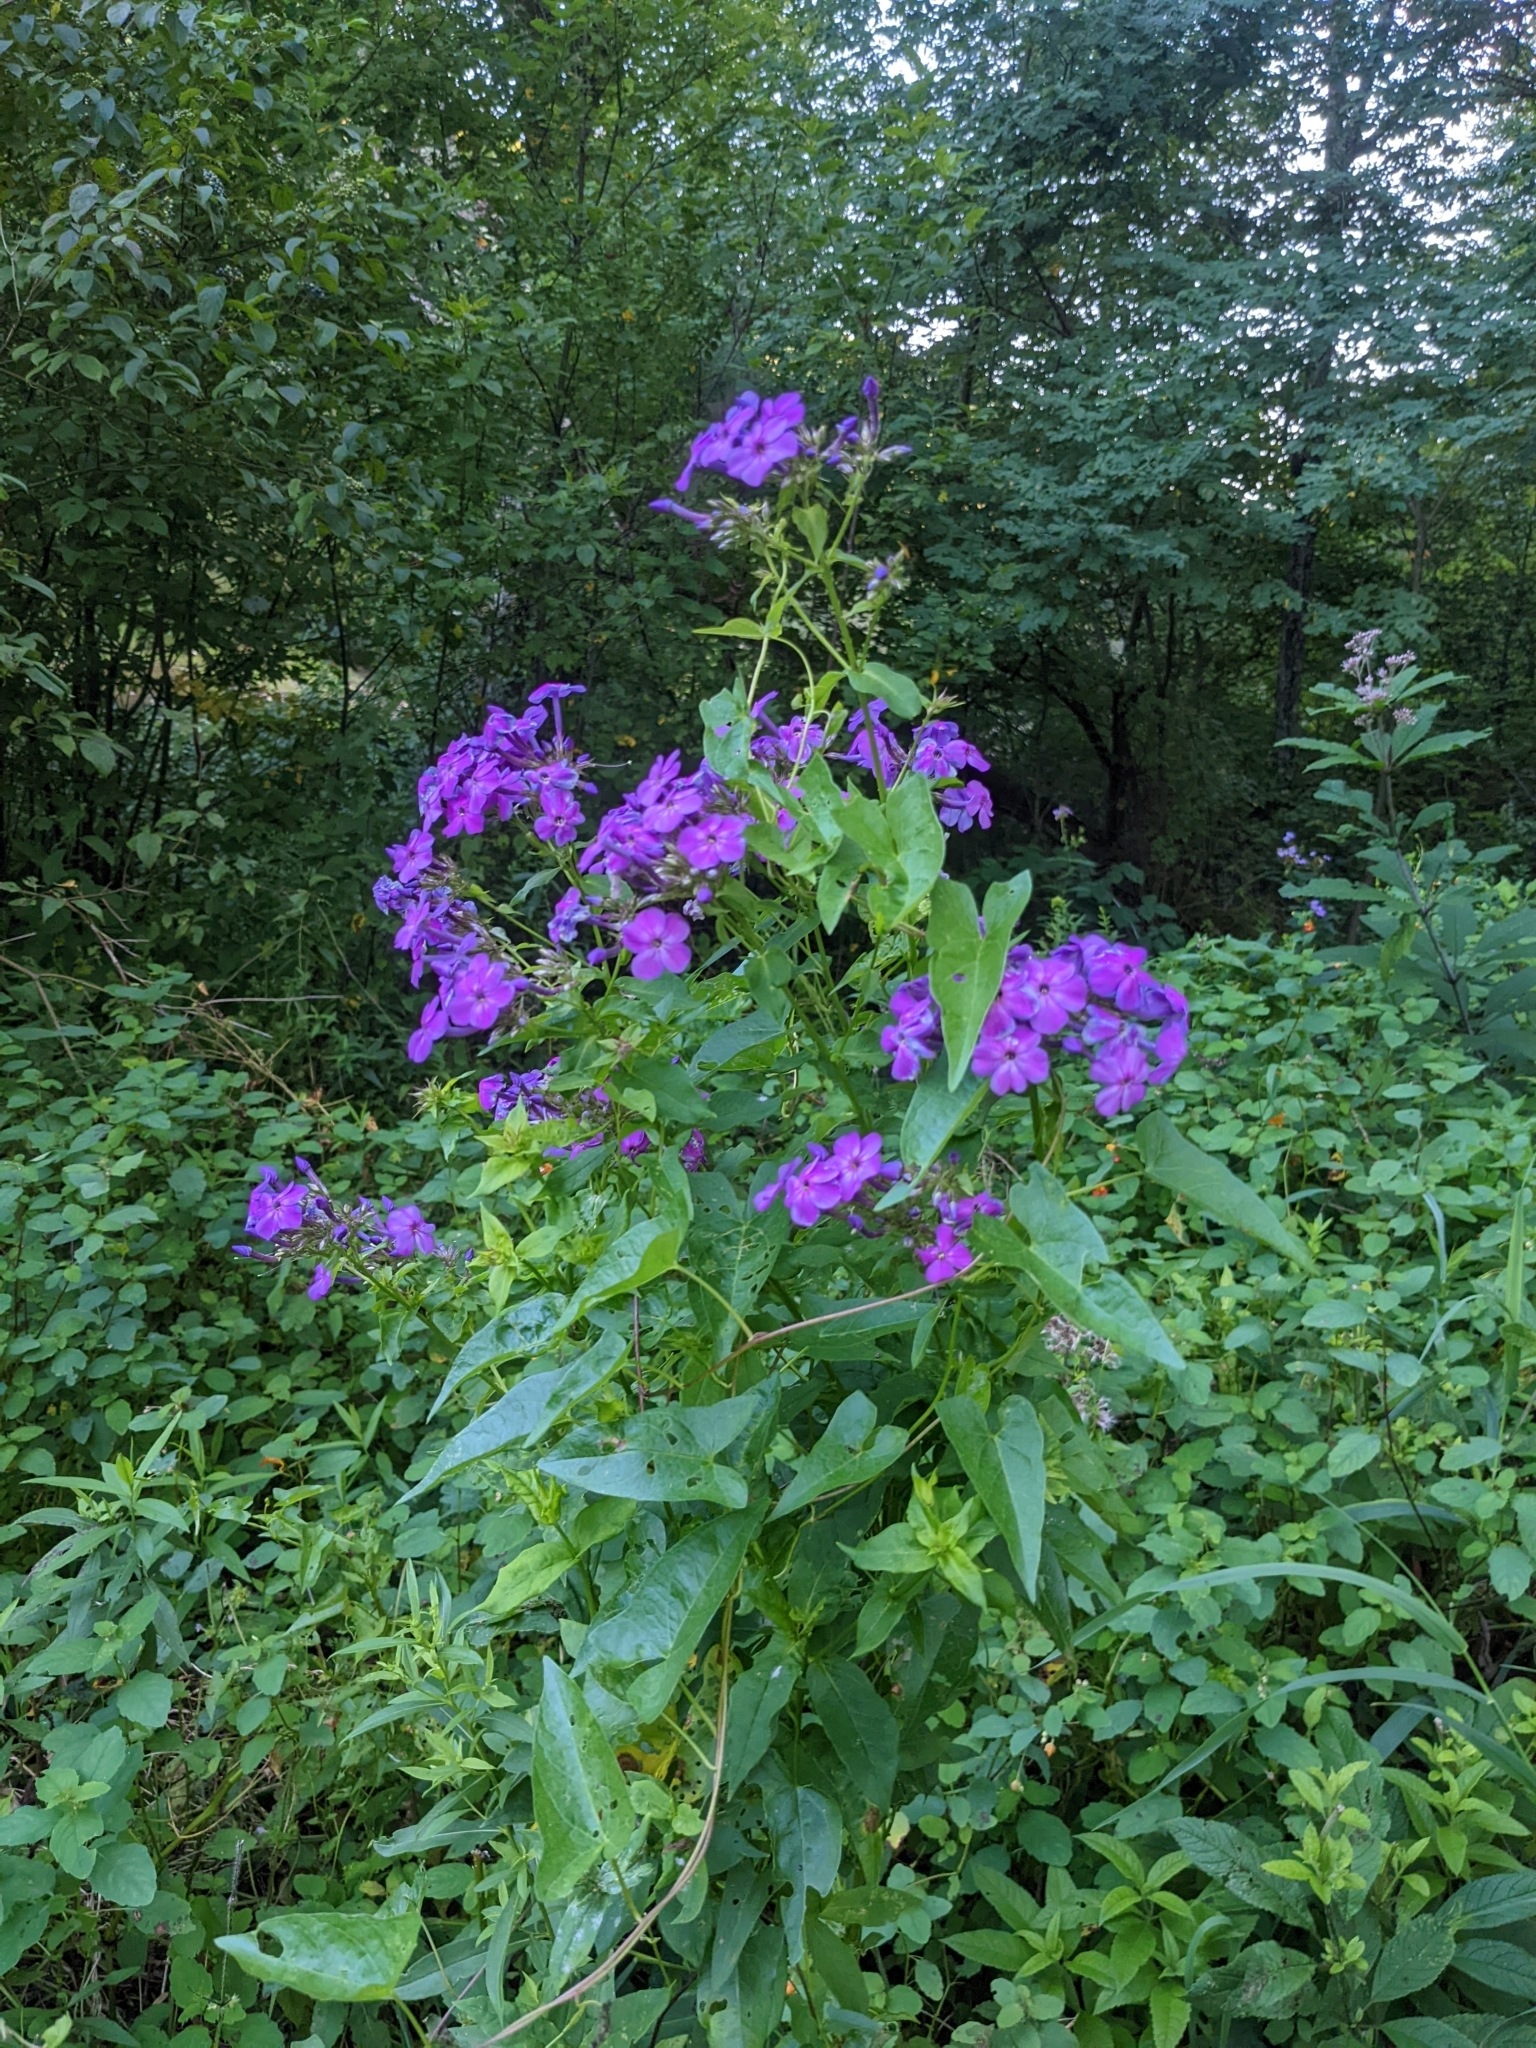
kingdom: Plantae
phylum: Tracheophyta
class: Magnoliopsida
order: Ericales
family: Polemoniaceae
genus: Phlox
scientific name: Phlox paniculata
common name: Fall phlox
